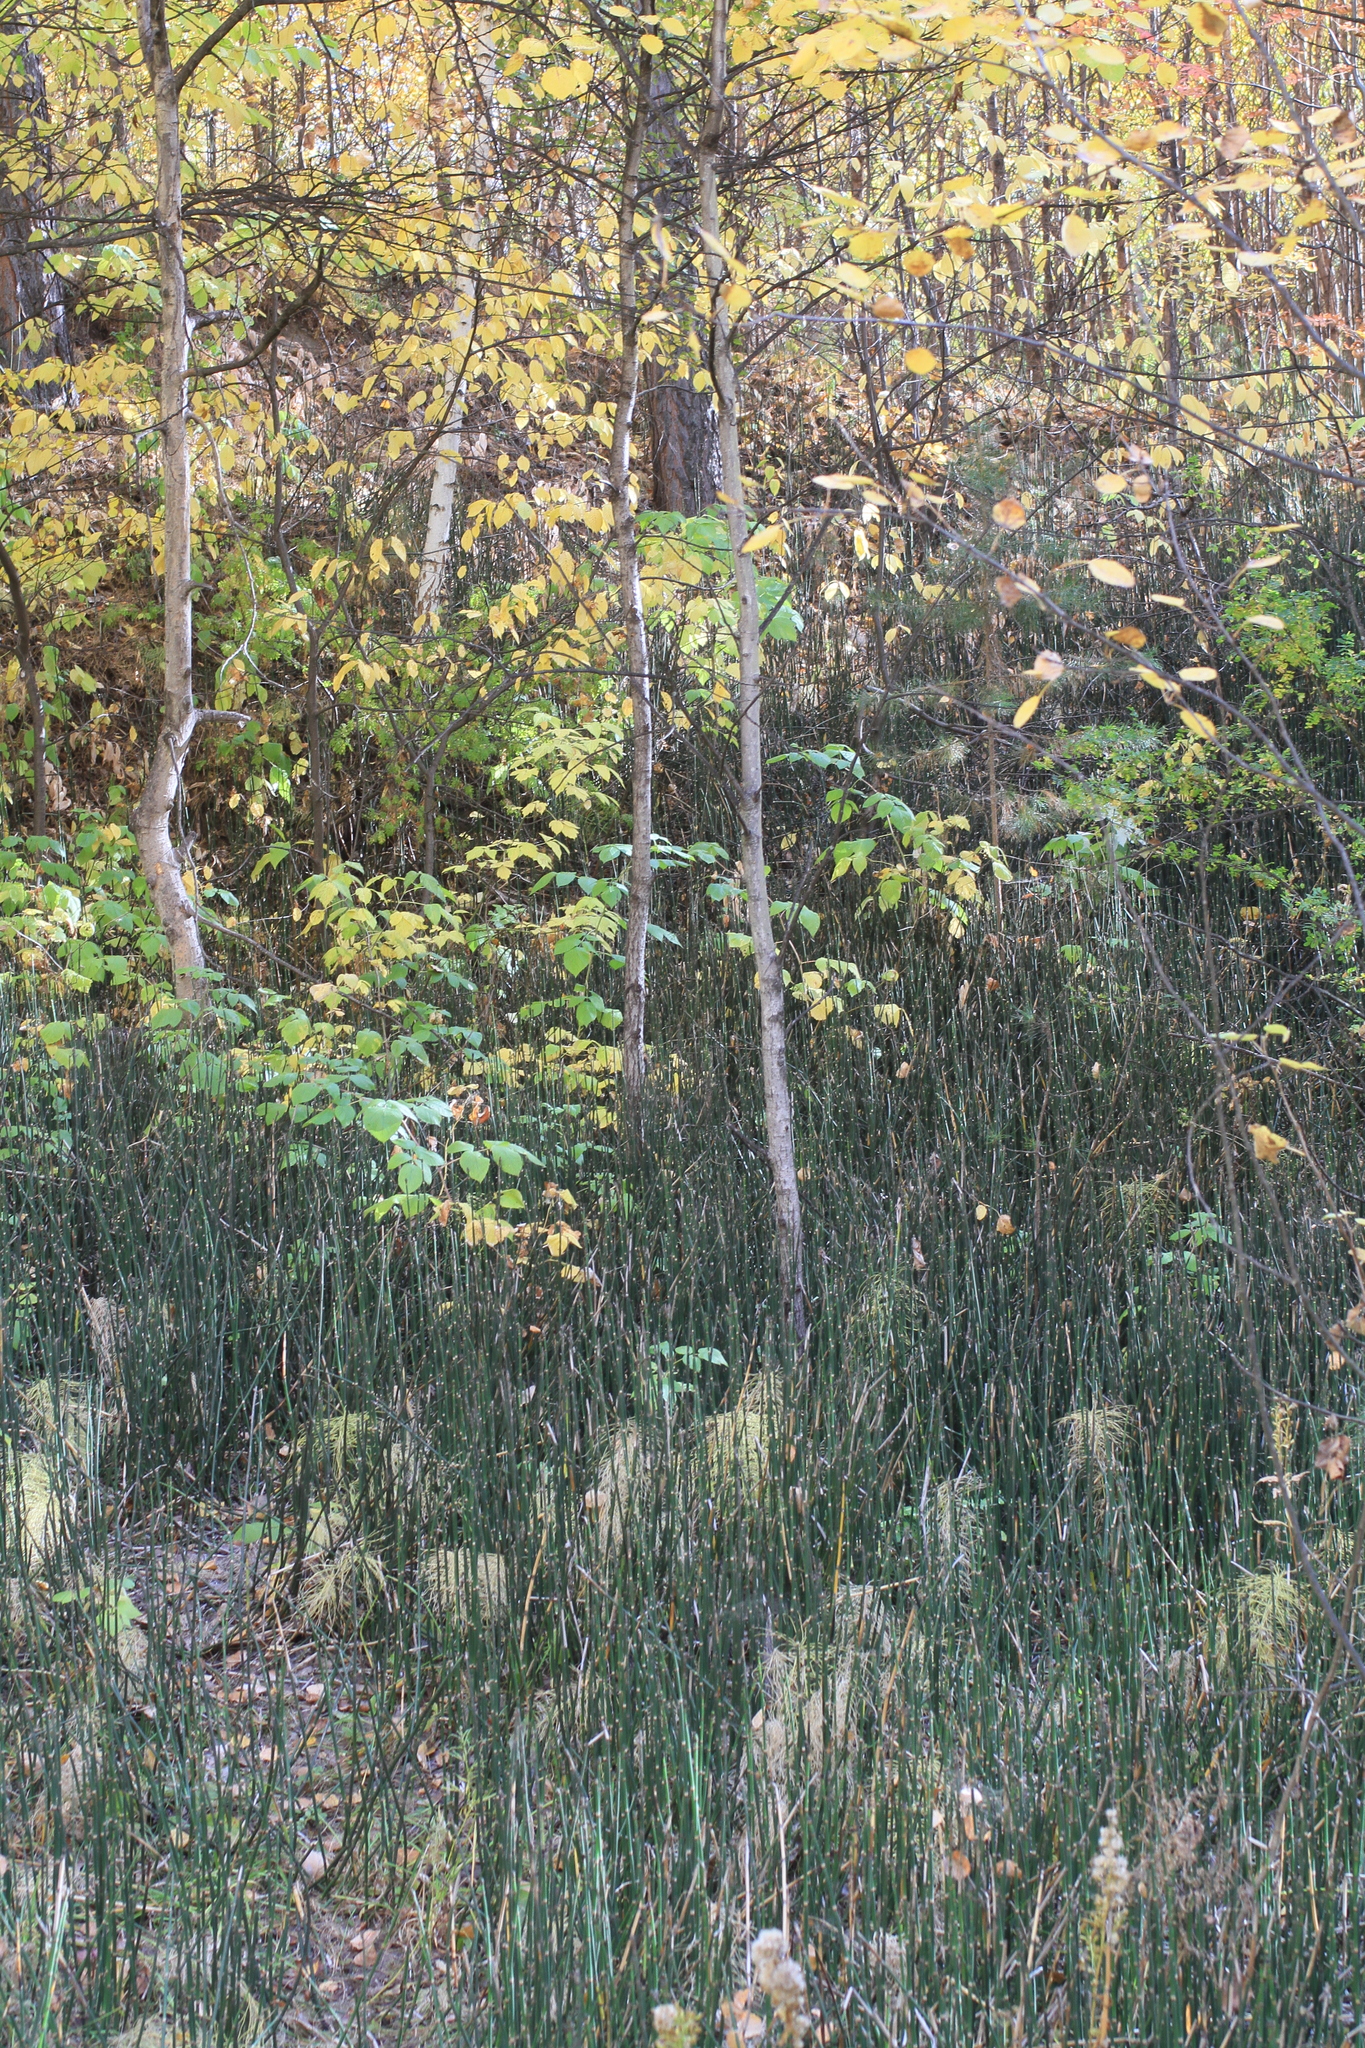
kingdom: Plantae
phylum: Tracheophyta
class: Polypodiopsida
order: Equisetales
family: Equisetaceae
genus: Equisetum
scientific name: Equisetum hyemale
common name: Rough horsetail
